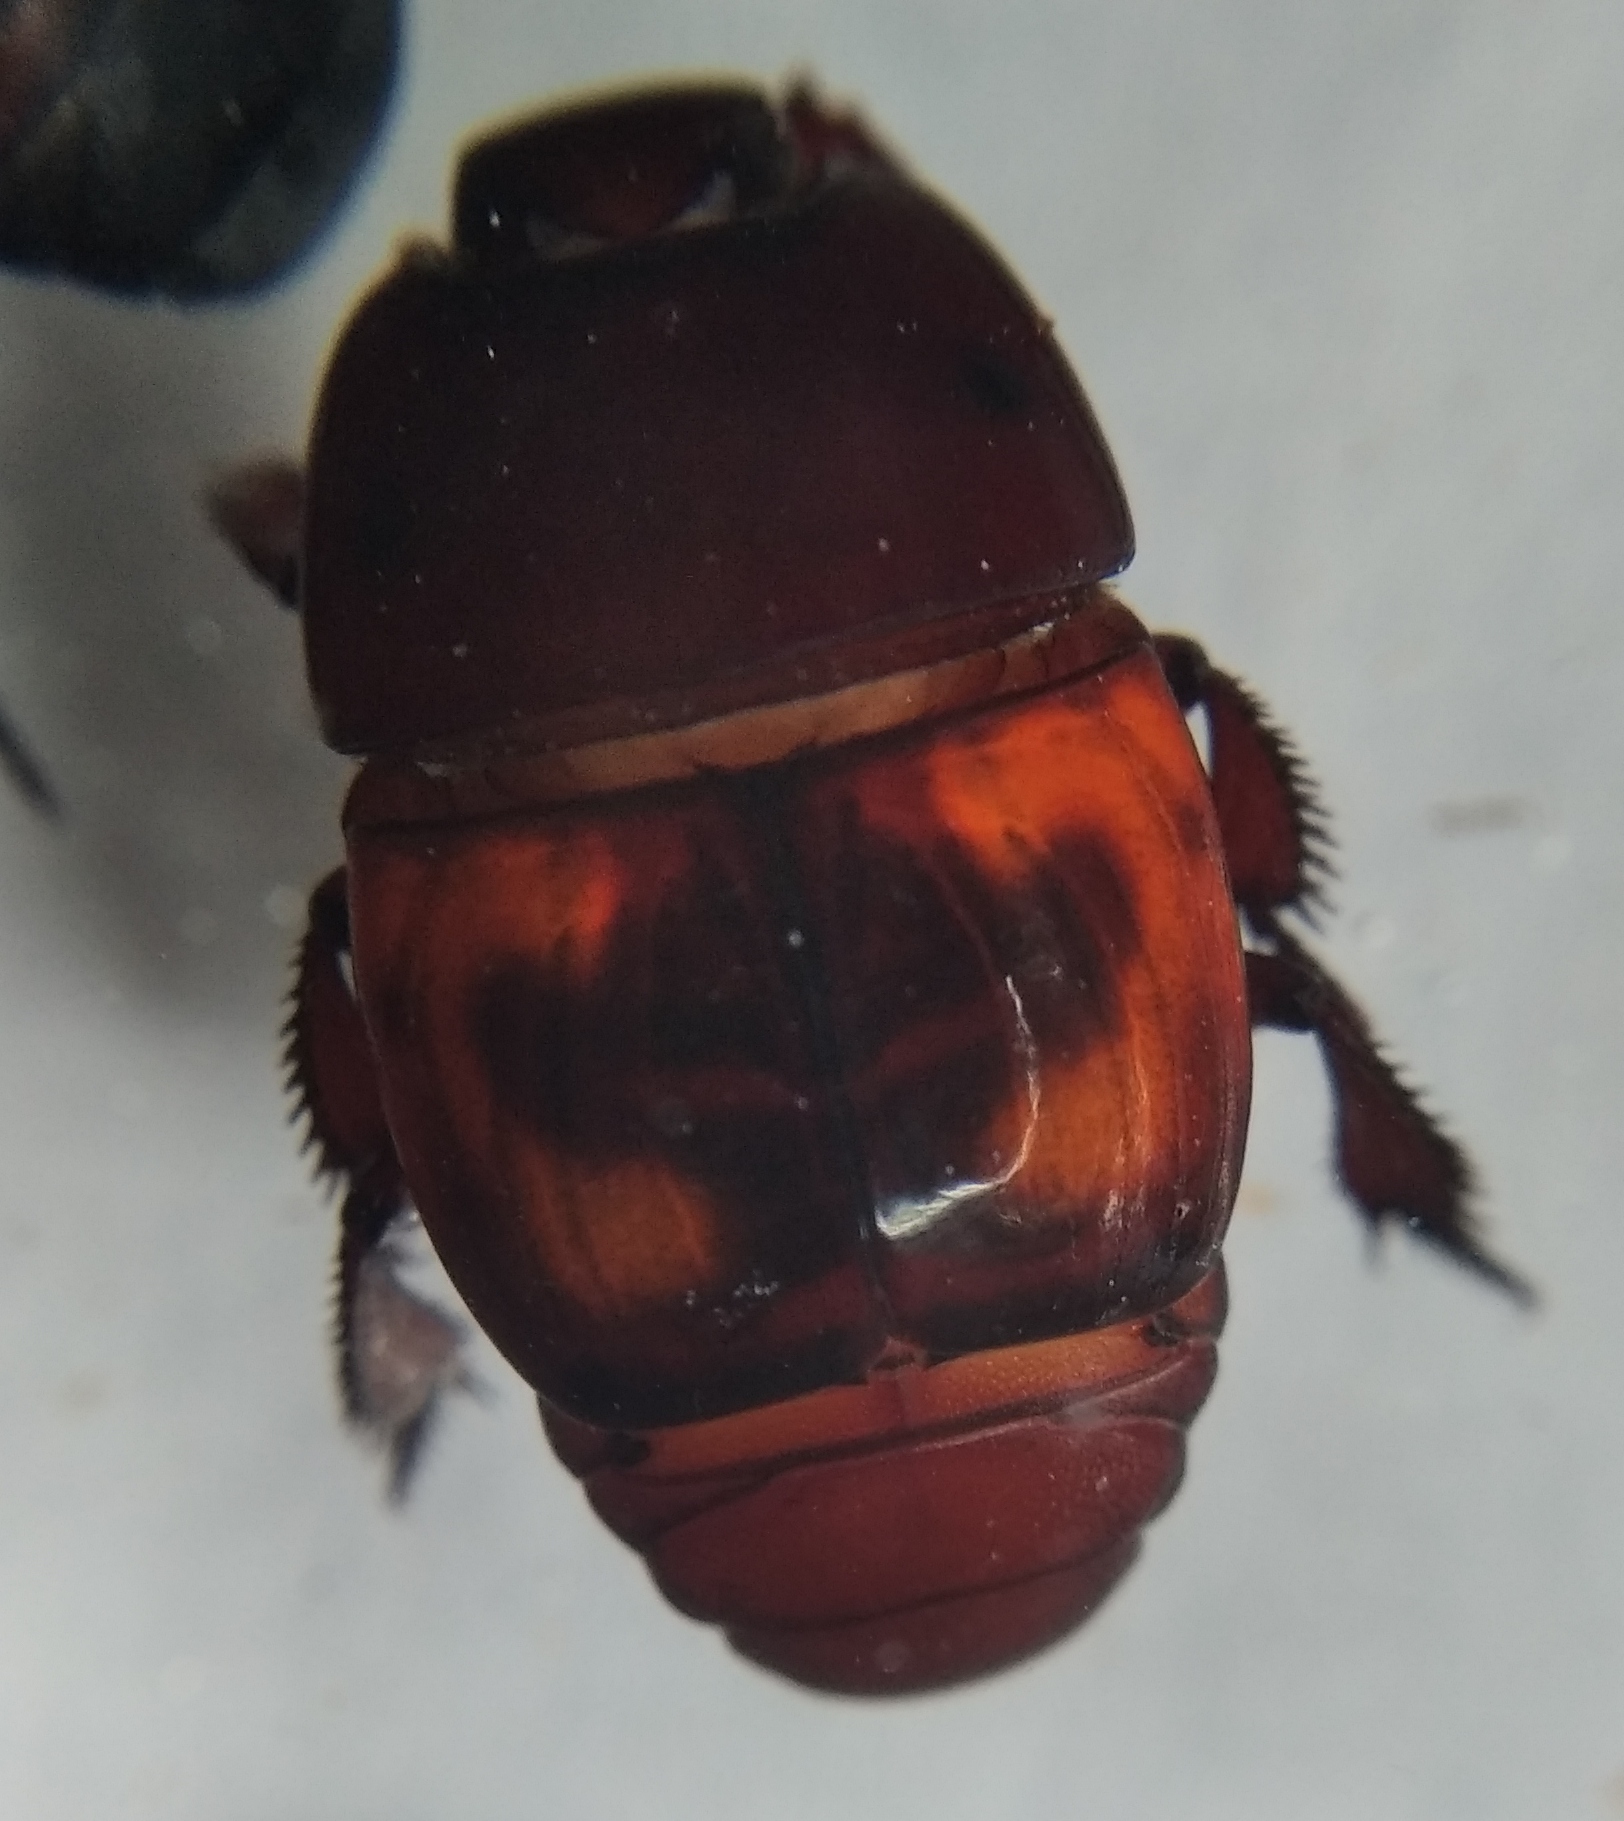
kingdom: Animalia
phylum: Arthropoda
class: Insecta
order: Coleoptera
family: Histeridae
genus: Hister
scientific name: Hister quadrimaculatus
